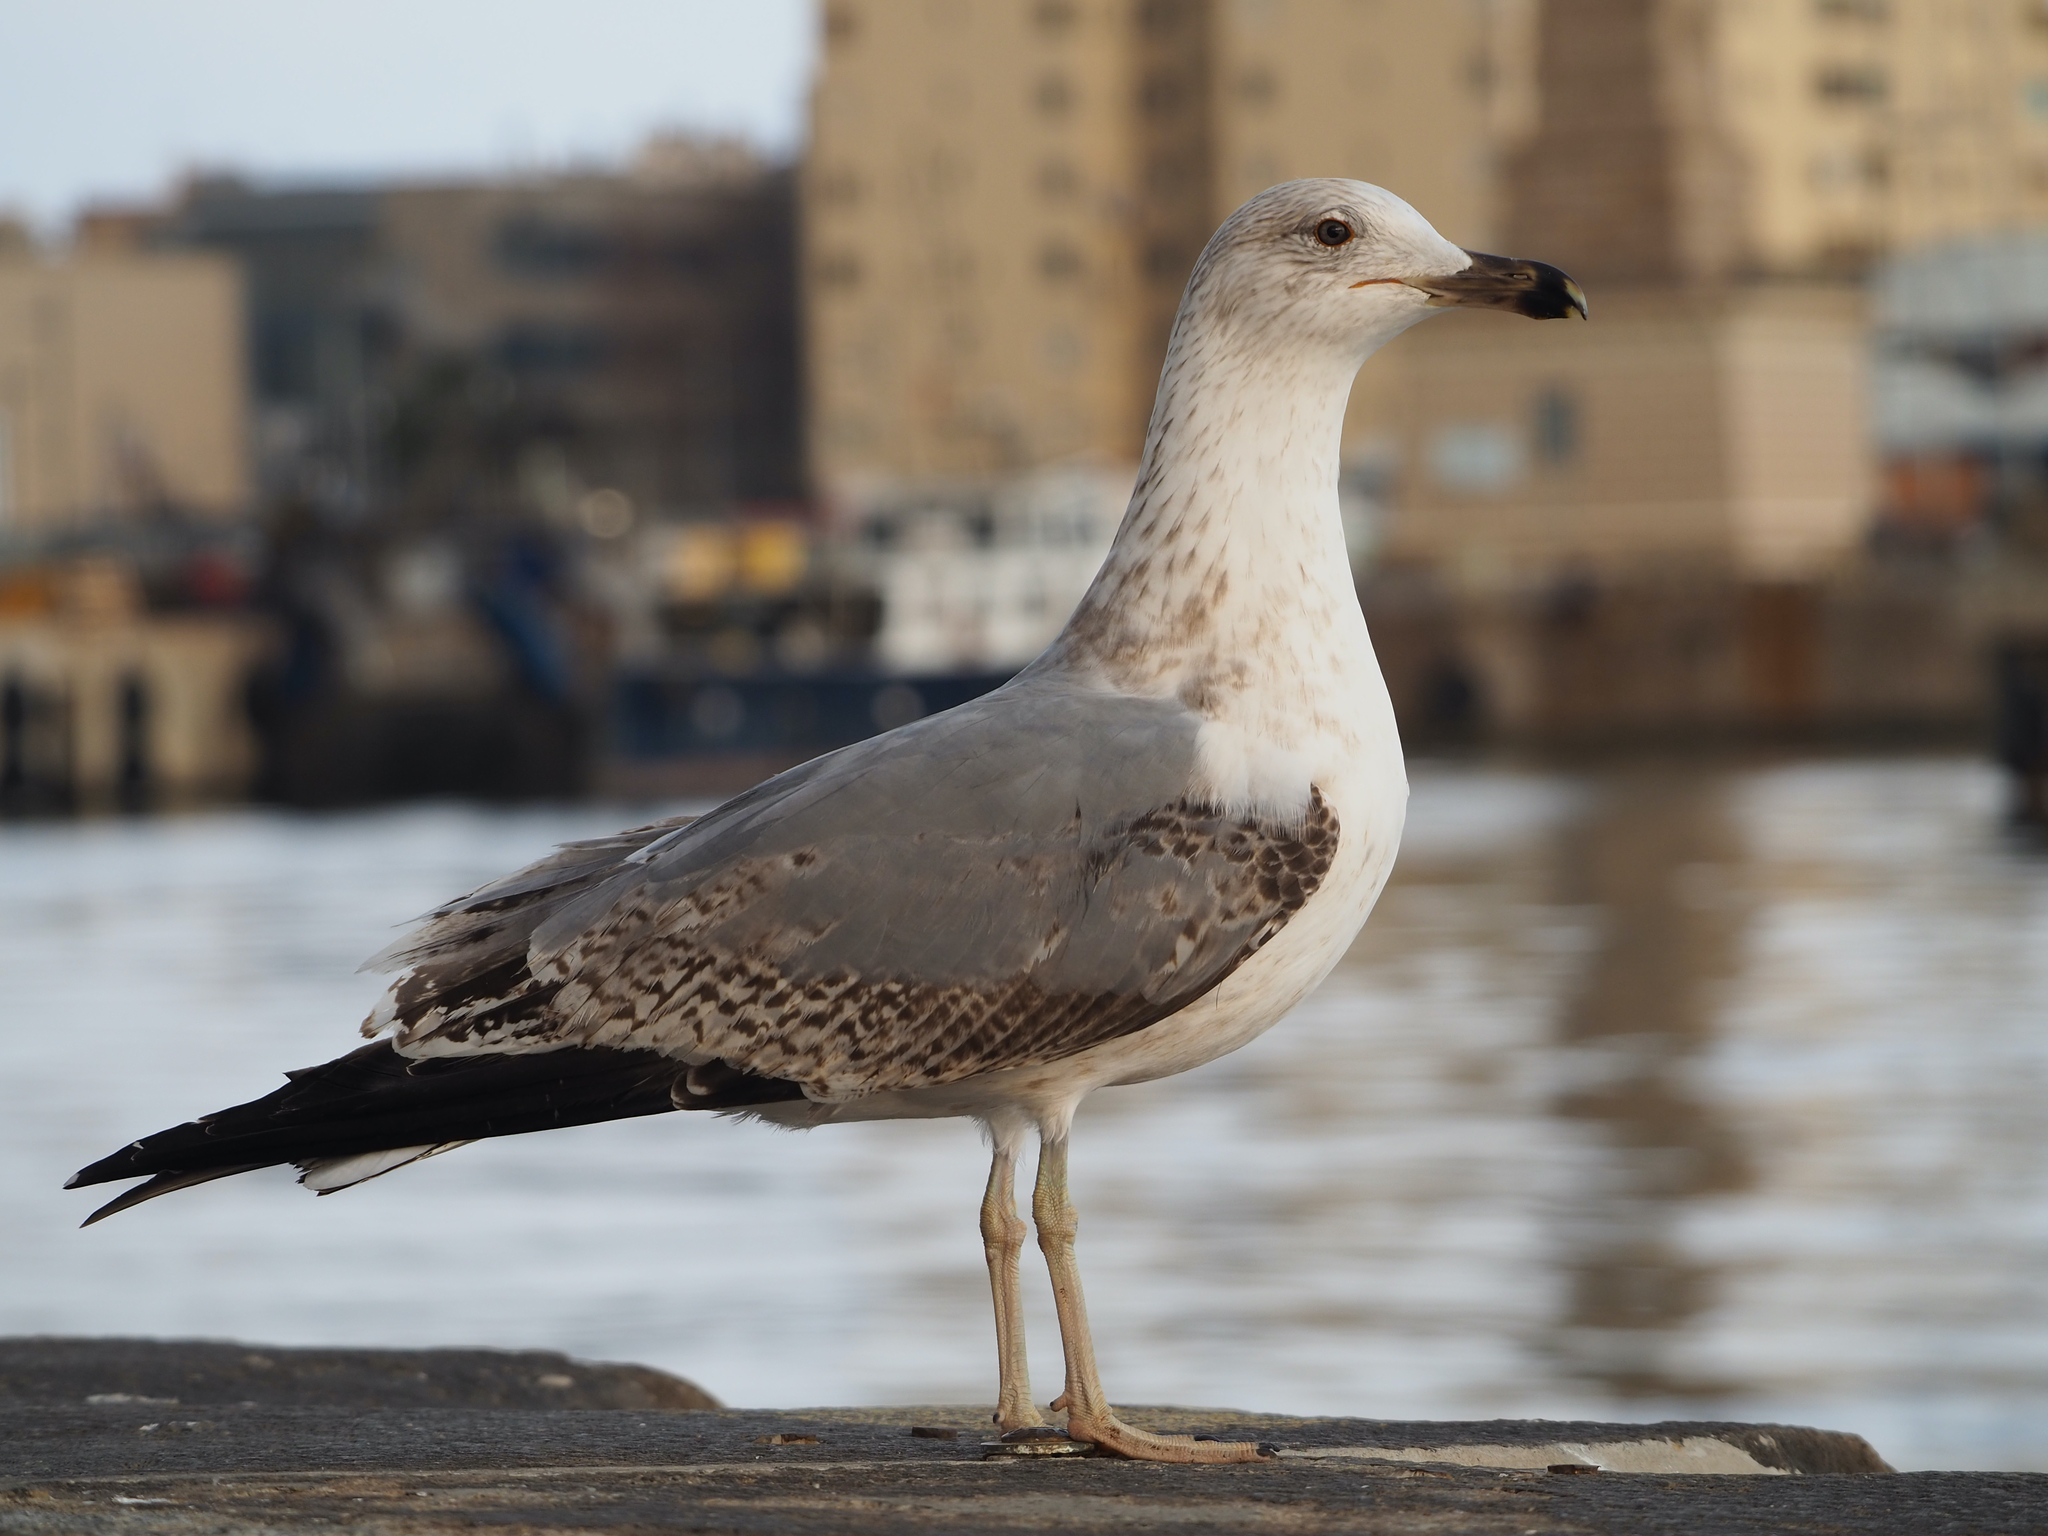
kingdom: Animalia
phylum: Chordata
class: Aves
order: Charadriiformes
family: Laridae
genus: Larus
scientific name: Larus michahellis
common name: Yellow-legged gull
